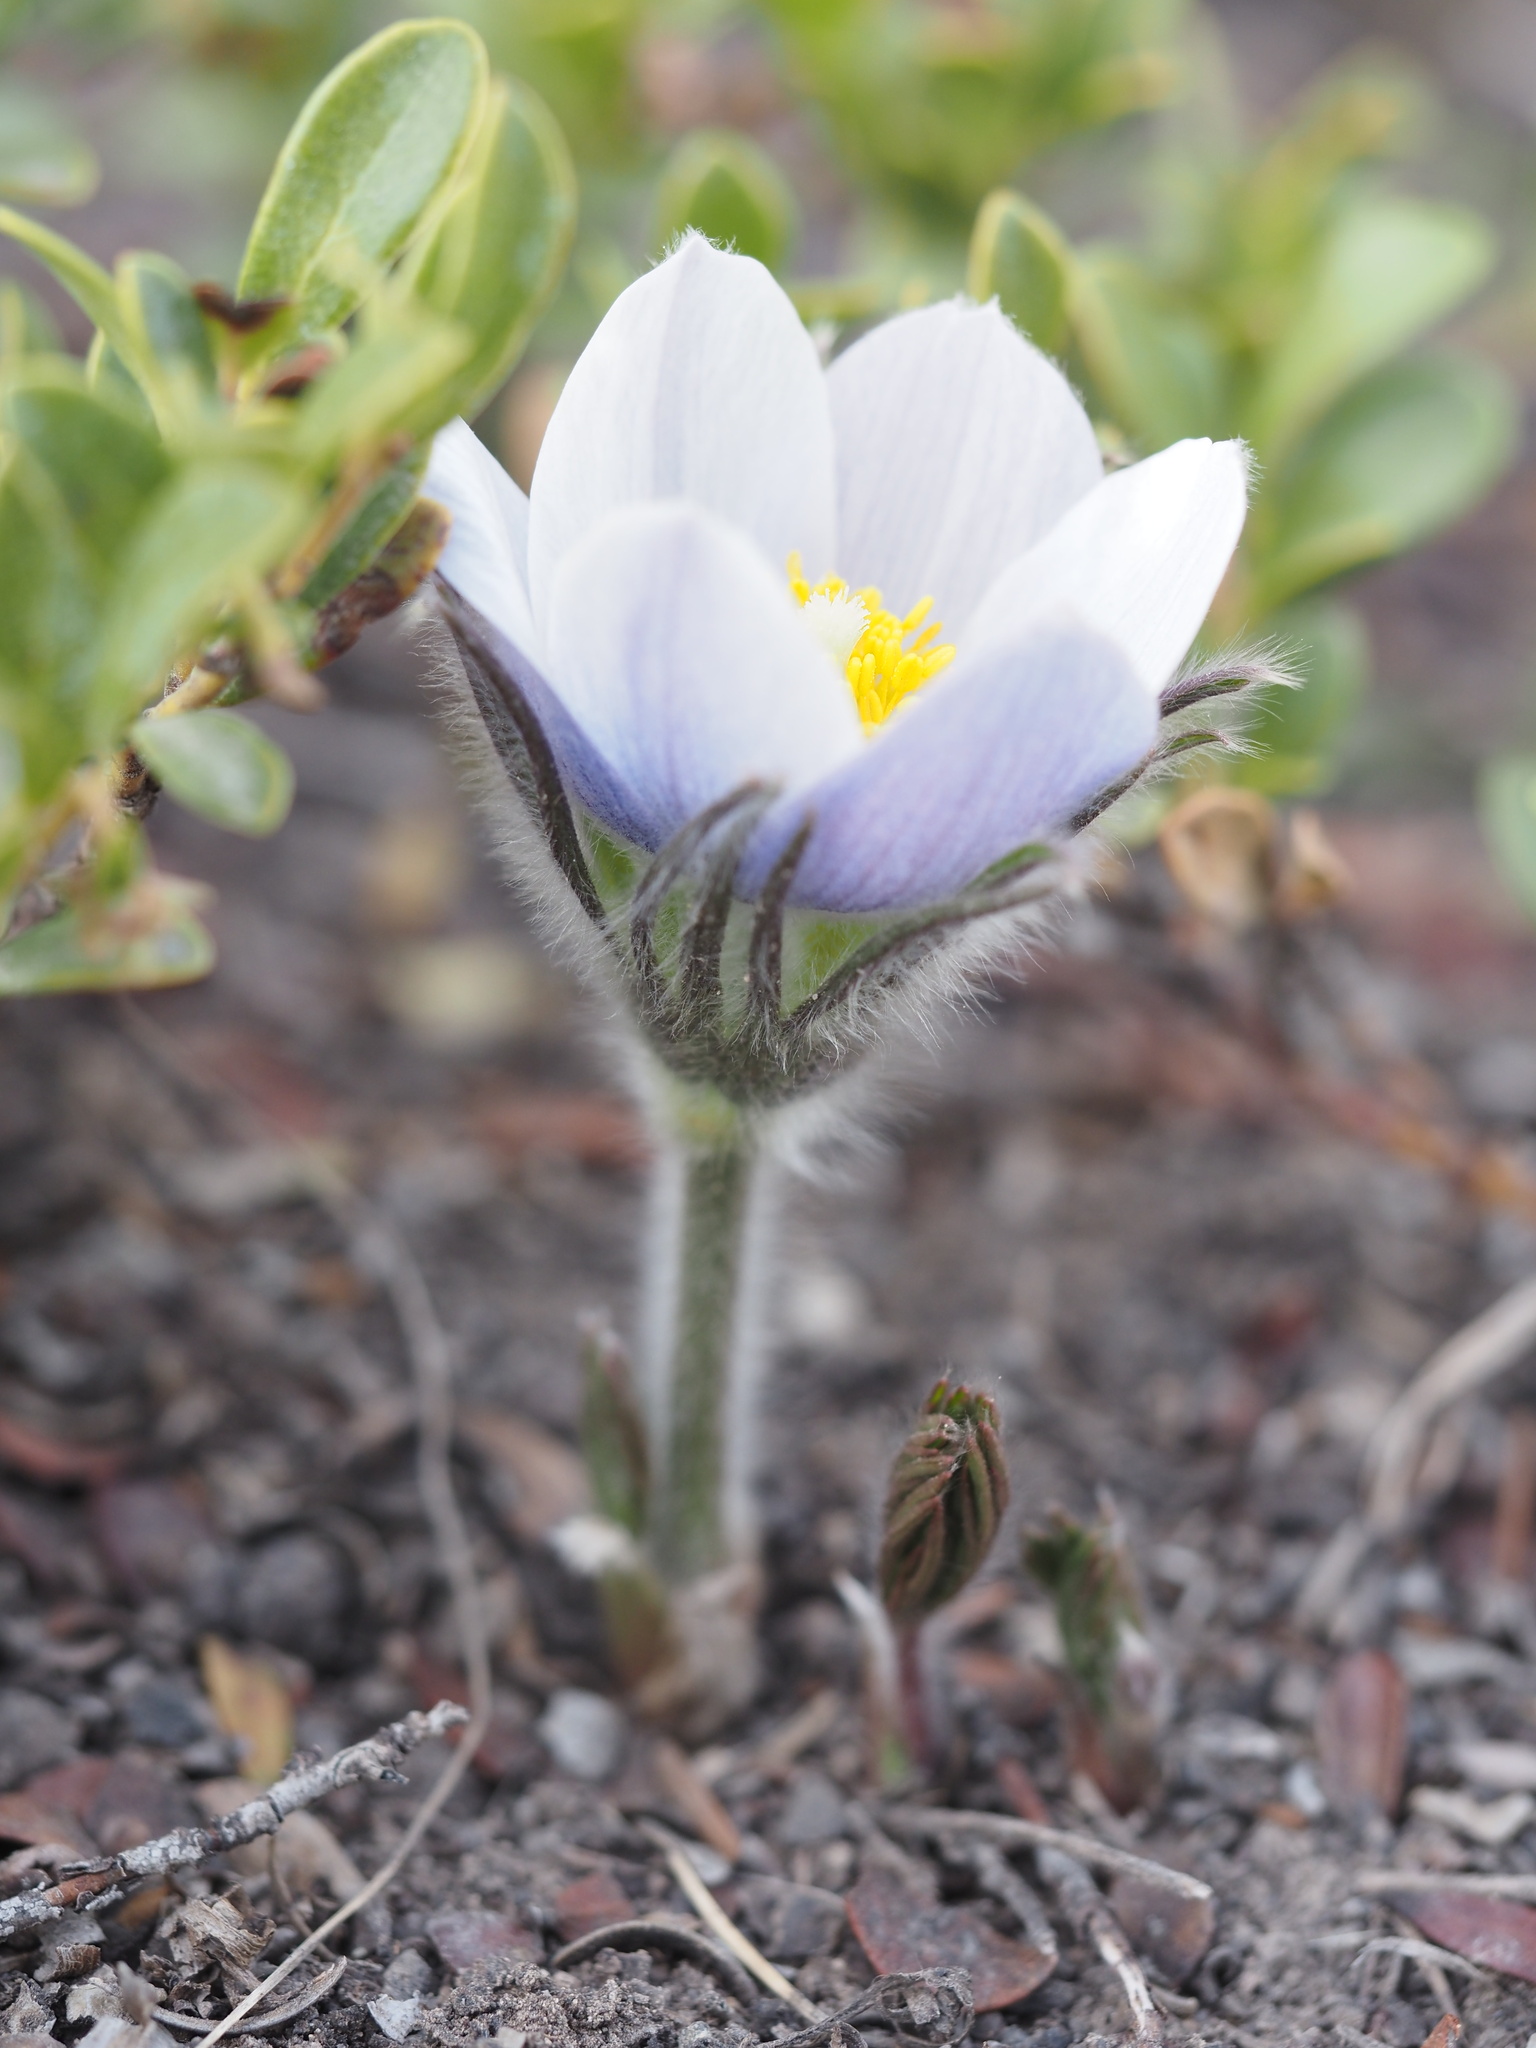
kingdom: Plantae
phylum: Tracheophyta
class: Magnoliopsida
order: Ranunculales
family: Ranunculaceae
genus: Pulsatilla
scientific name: Pulsatilla nuttalliana
